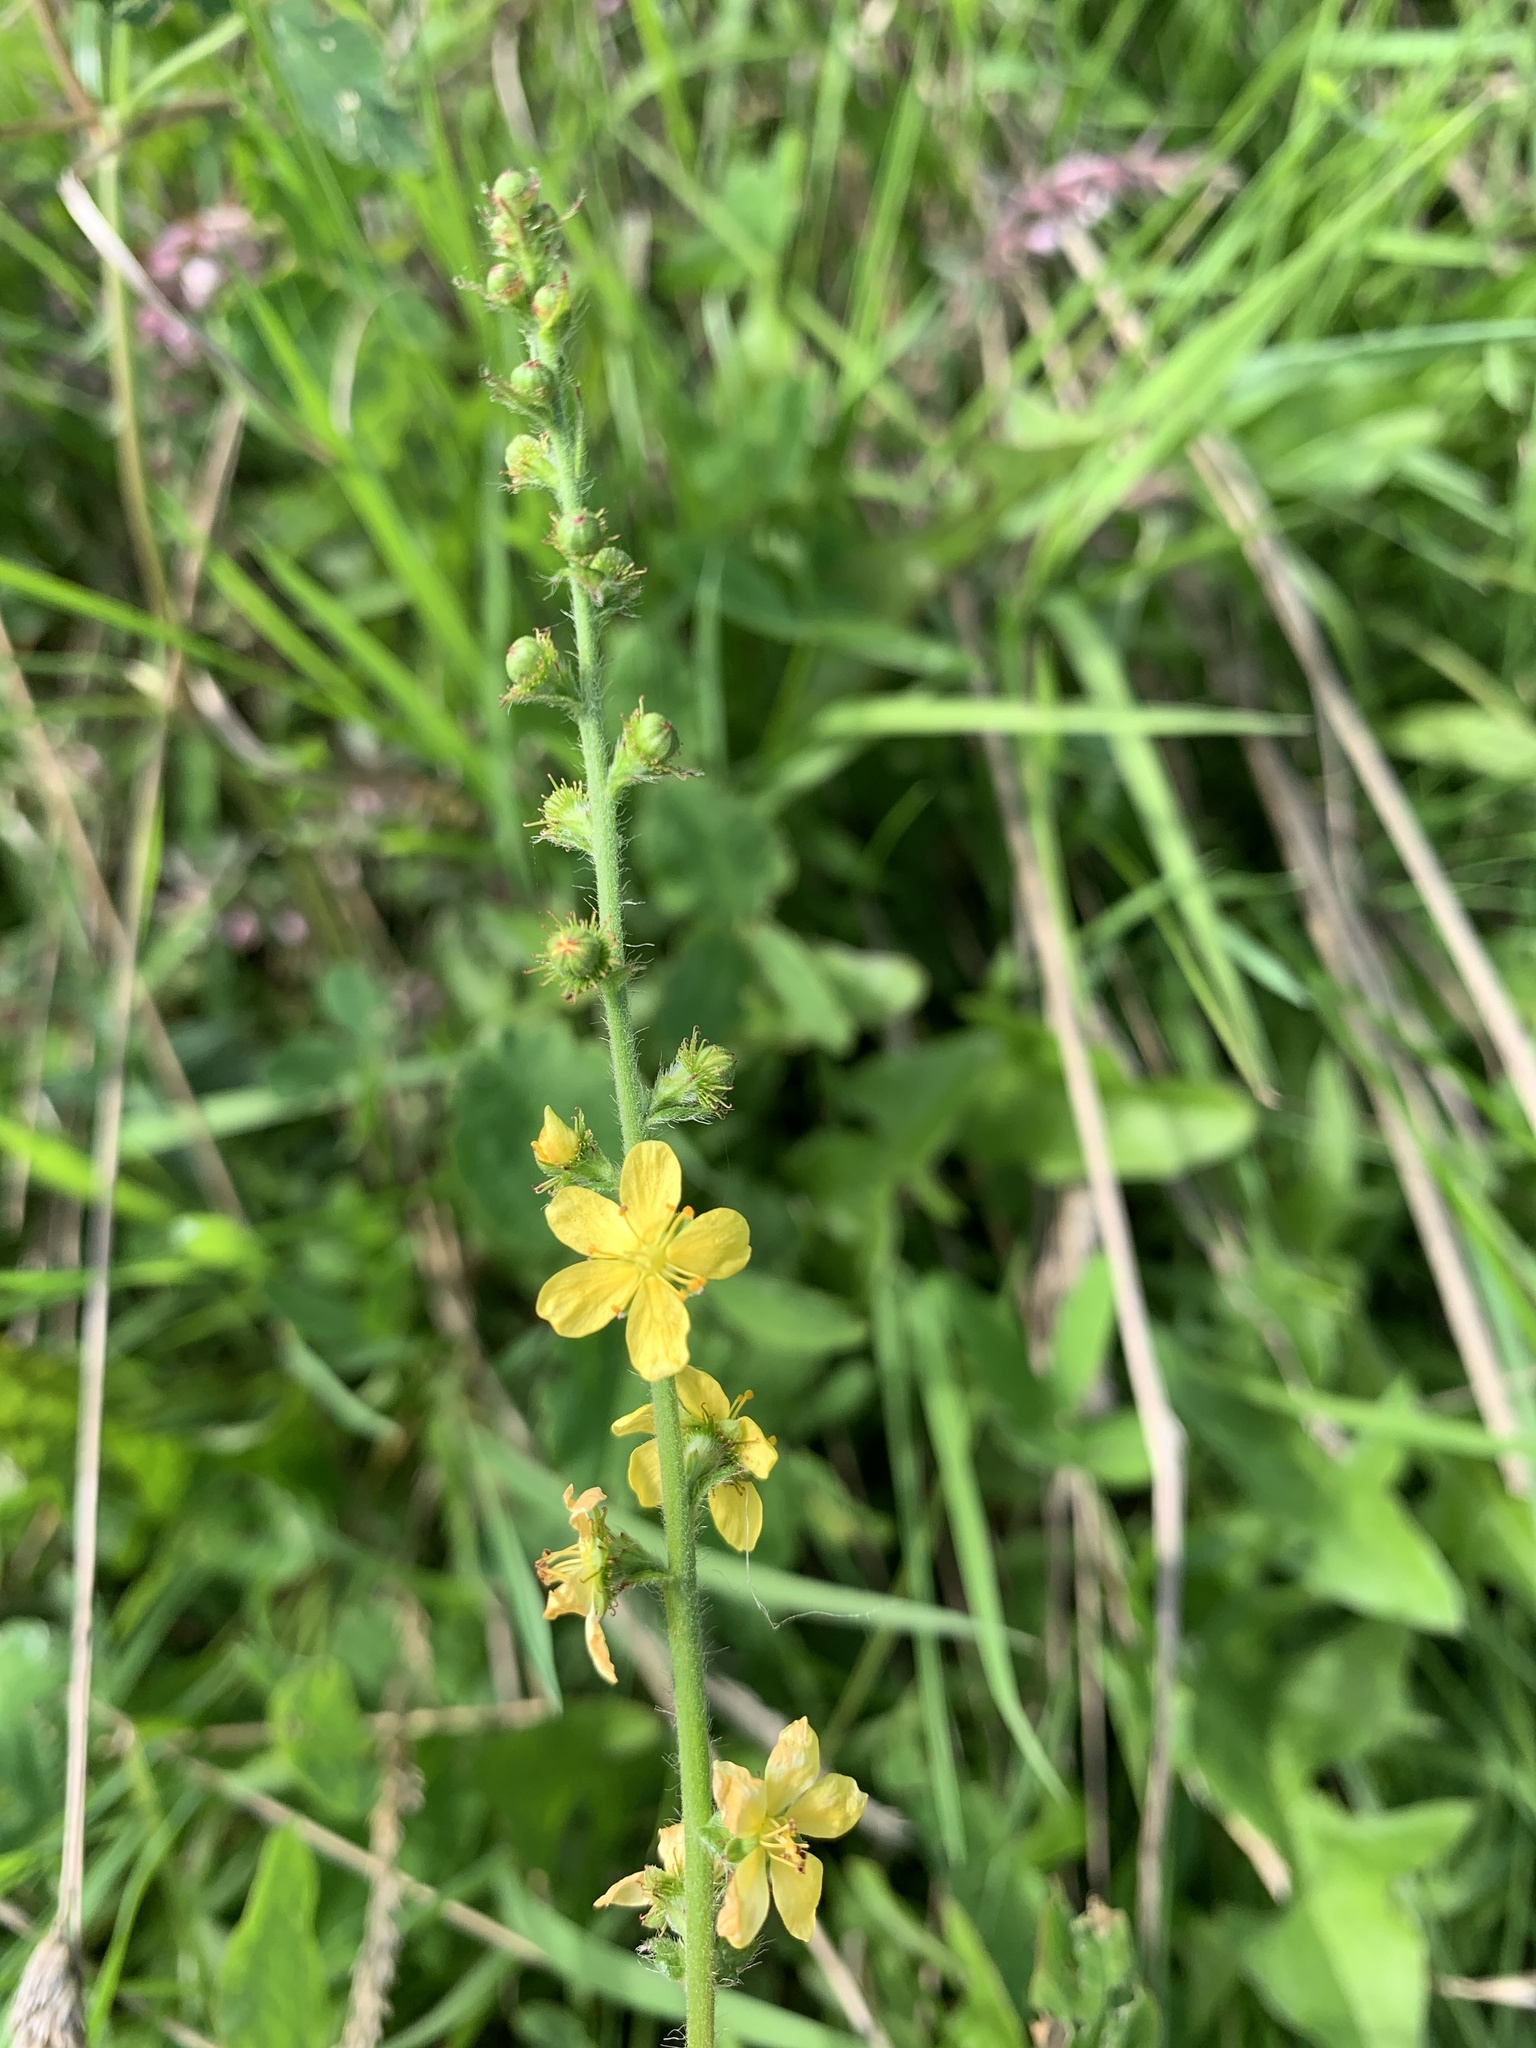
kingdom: Plantae
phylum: Tracheophyta
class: Magnoliopsida
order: Rosales
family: Rosaceae
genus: Agrimonia
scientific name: Agrimonia eupatoria
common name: Agrimony
